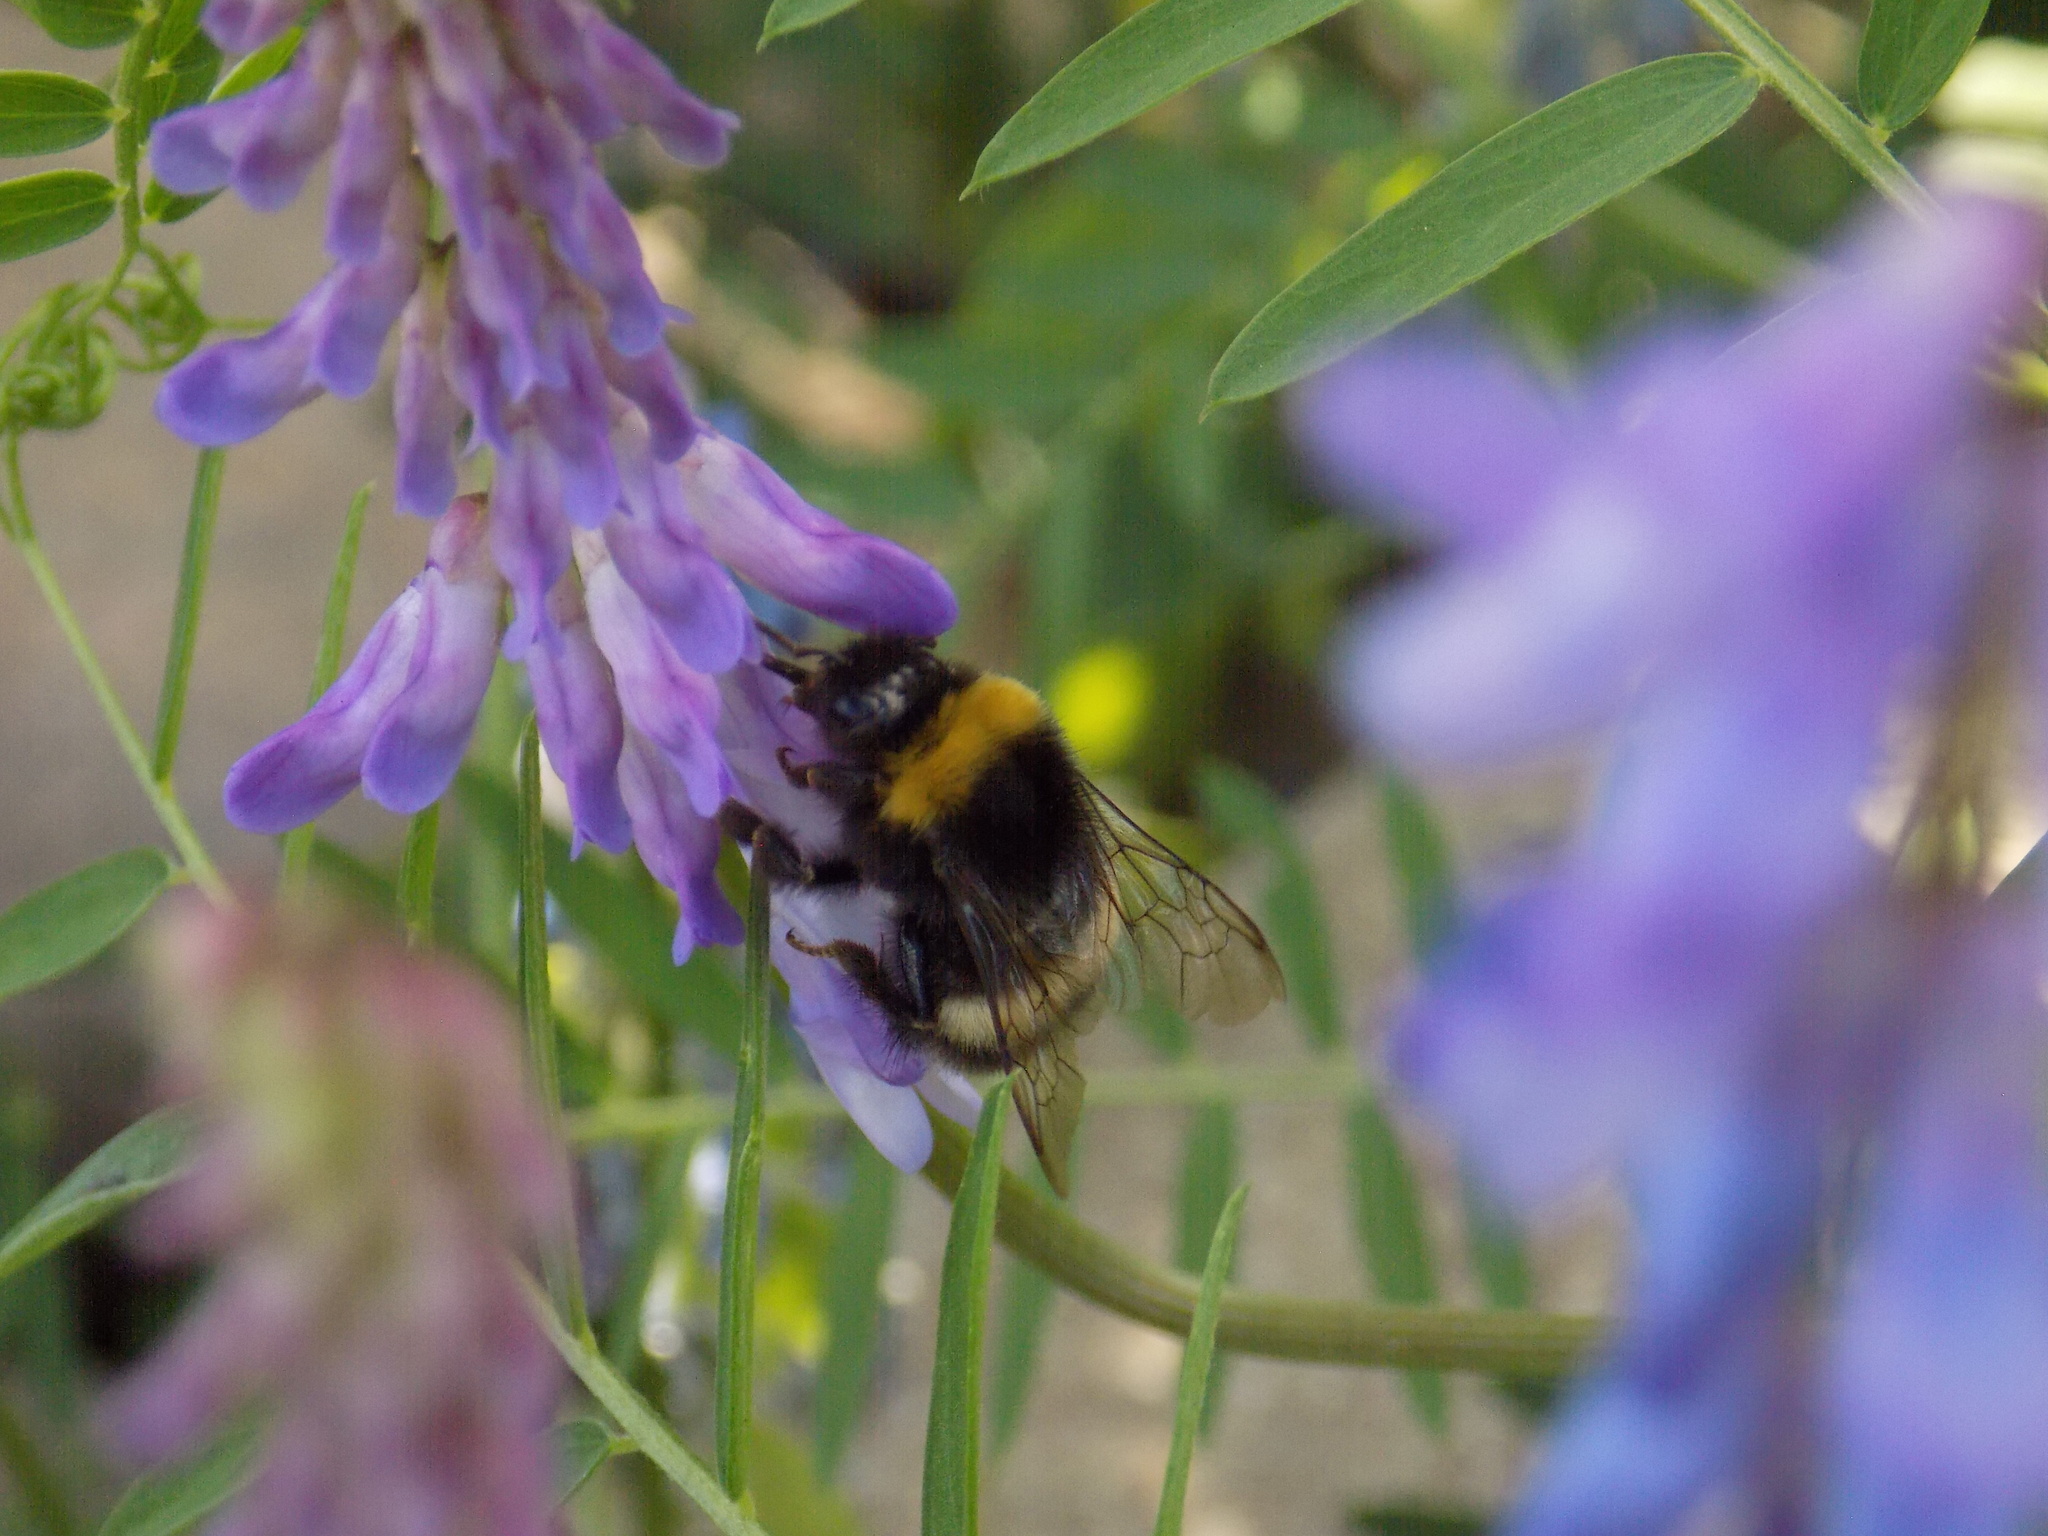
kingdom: Animalia
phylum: Arthropoda
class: Insecta
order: Hymenoptera
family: Apidae
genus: Bombus
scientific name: Bombus
